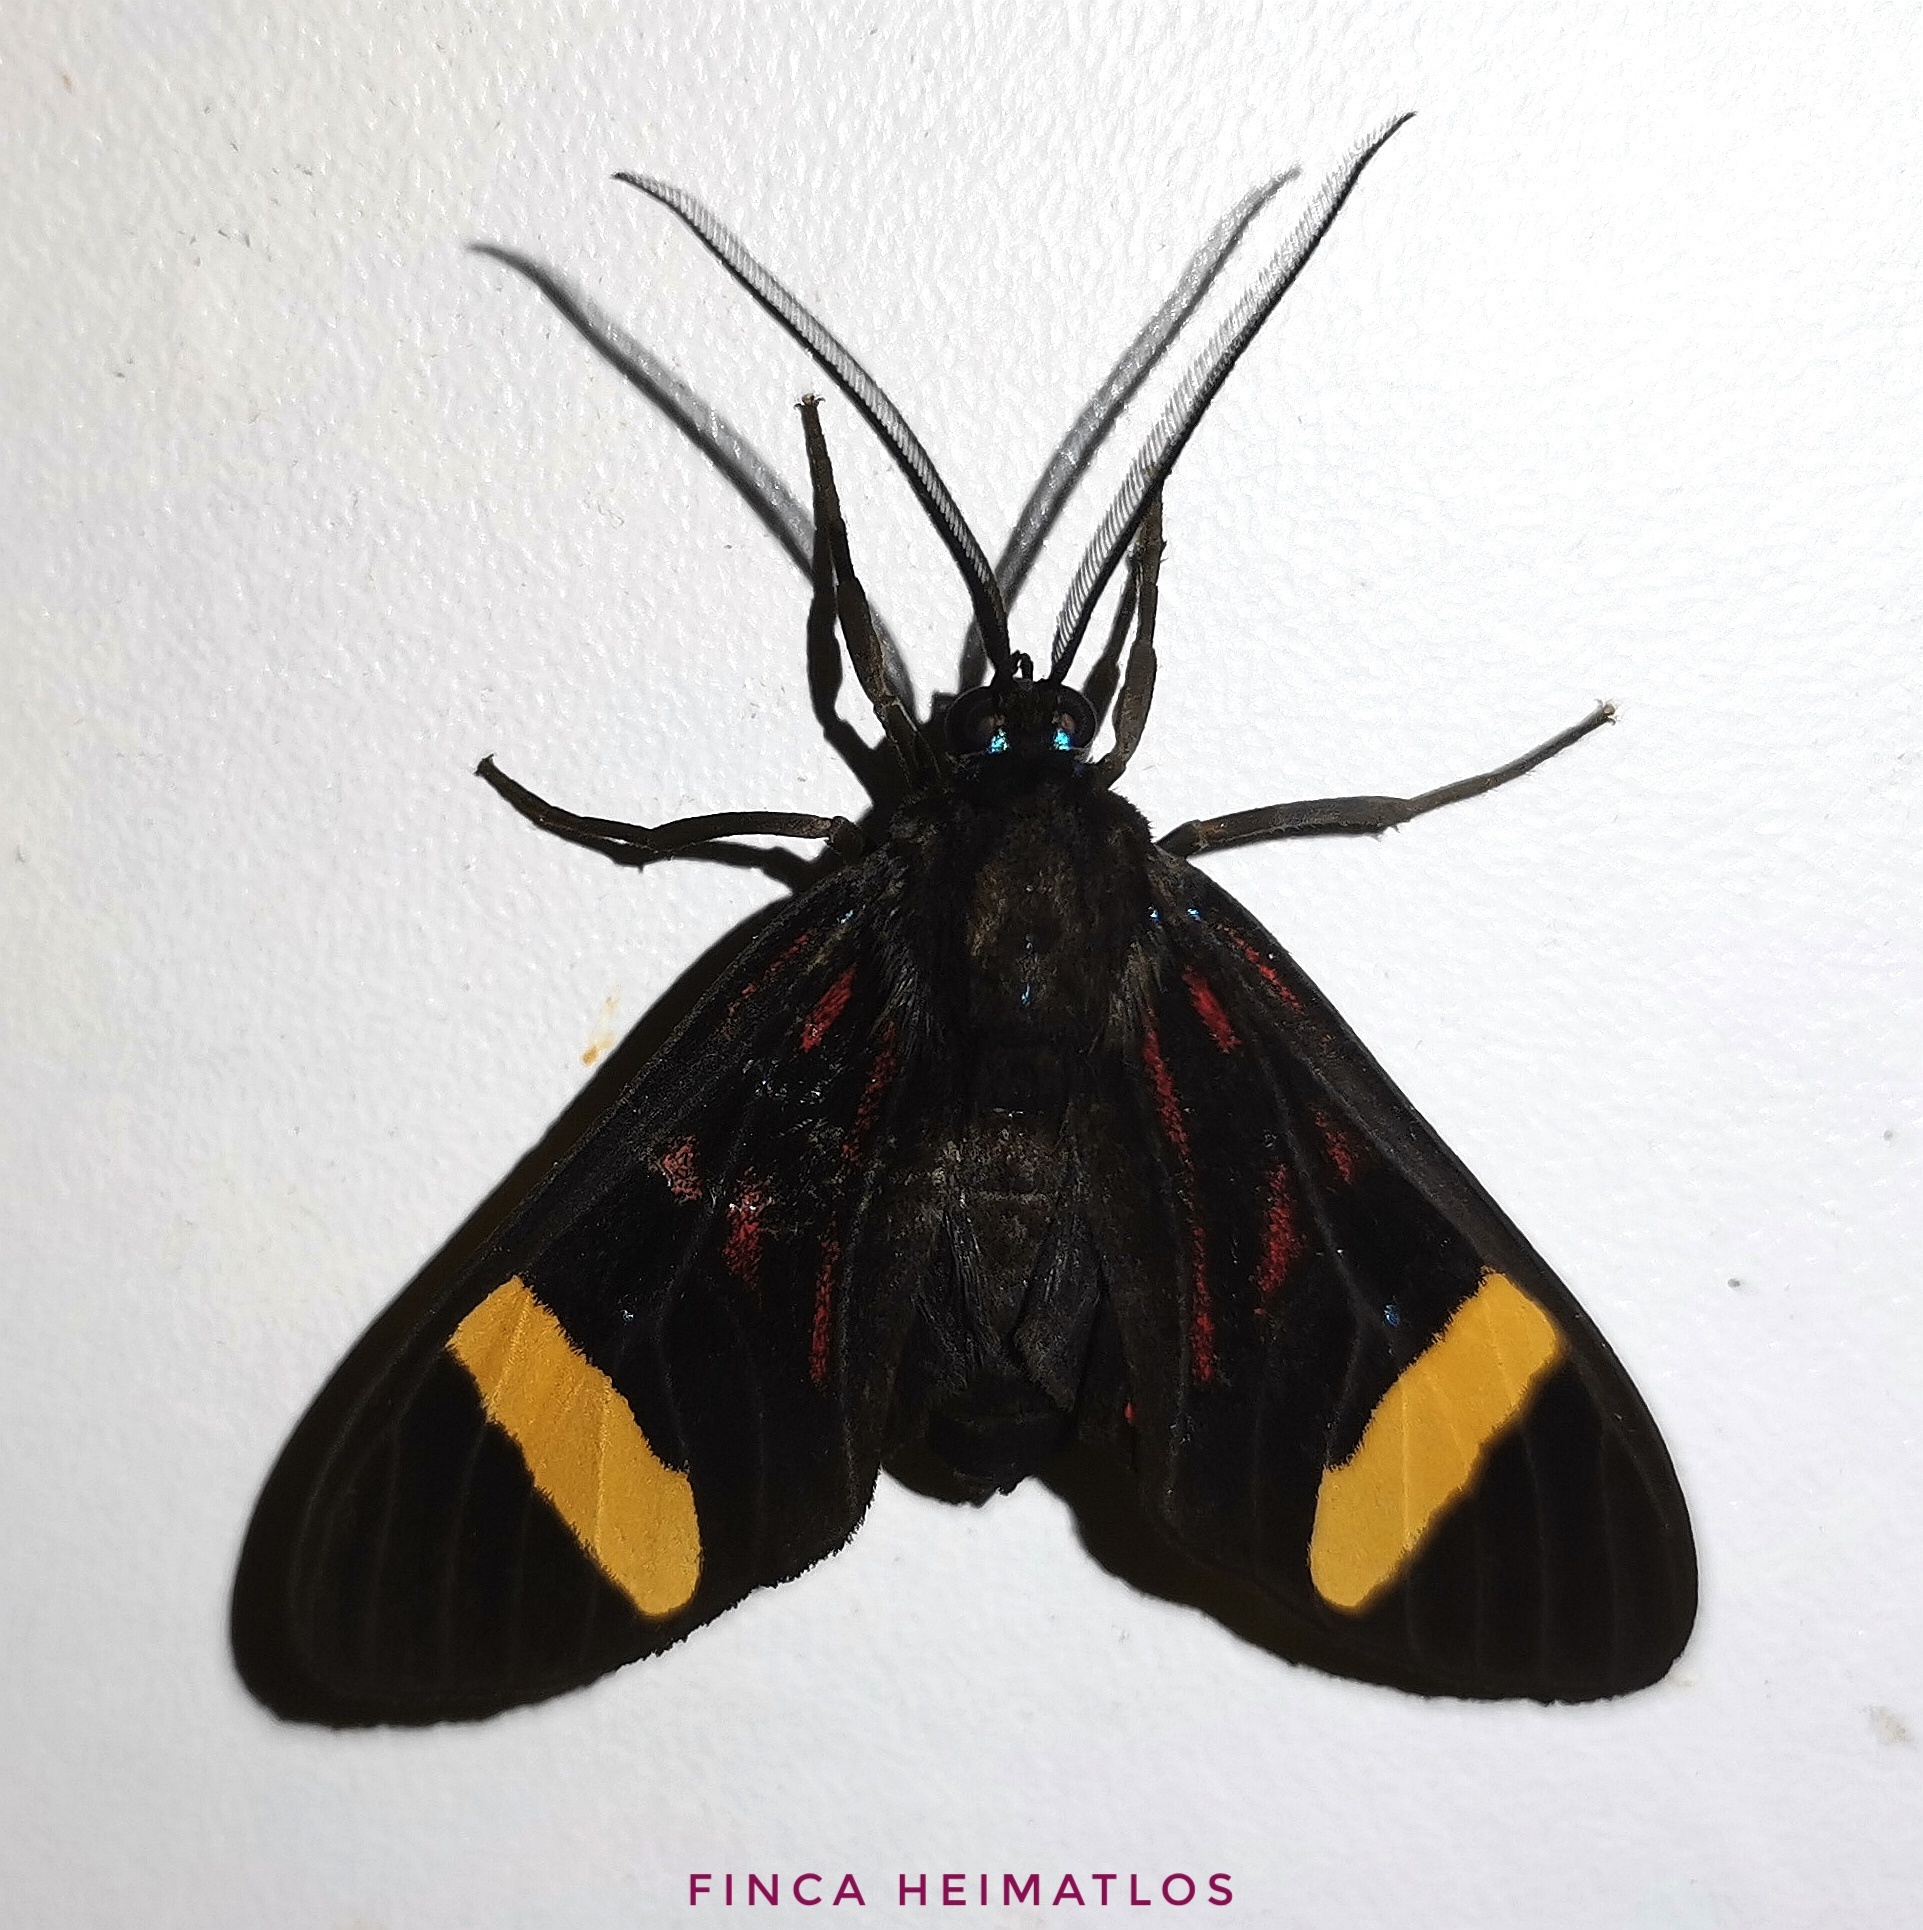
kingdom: Animalia
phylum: Arthropoda
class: Insecta
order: Lepidoptera
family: Erebidae
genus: Histioea
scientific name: Histioea proserpina
